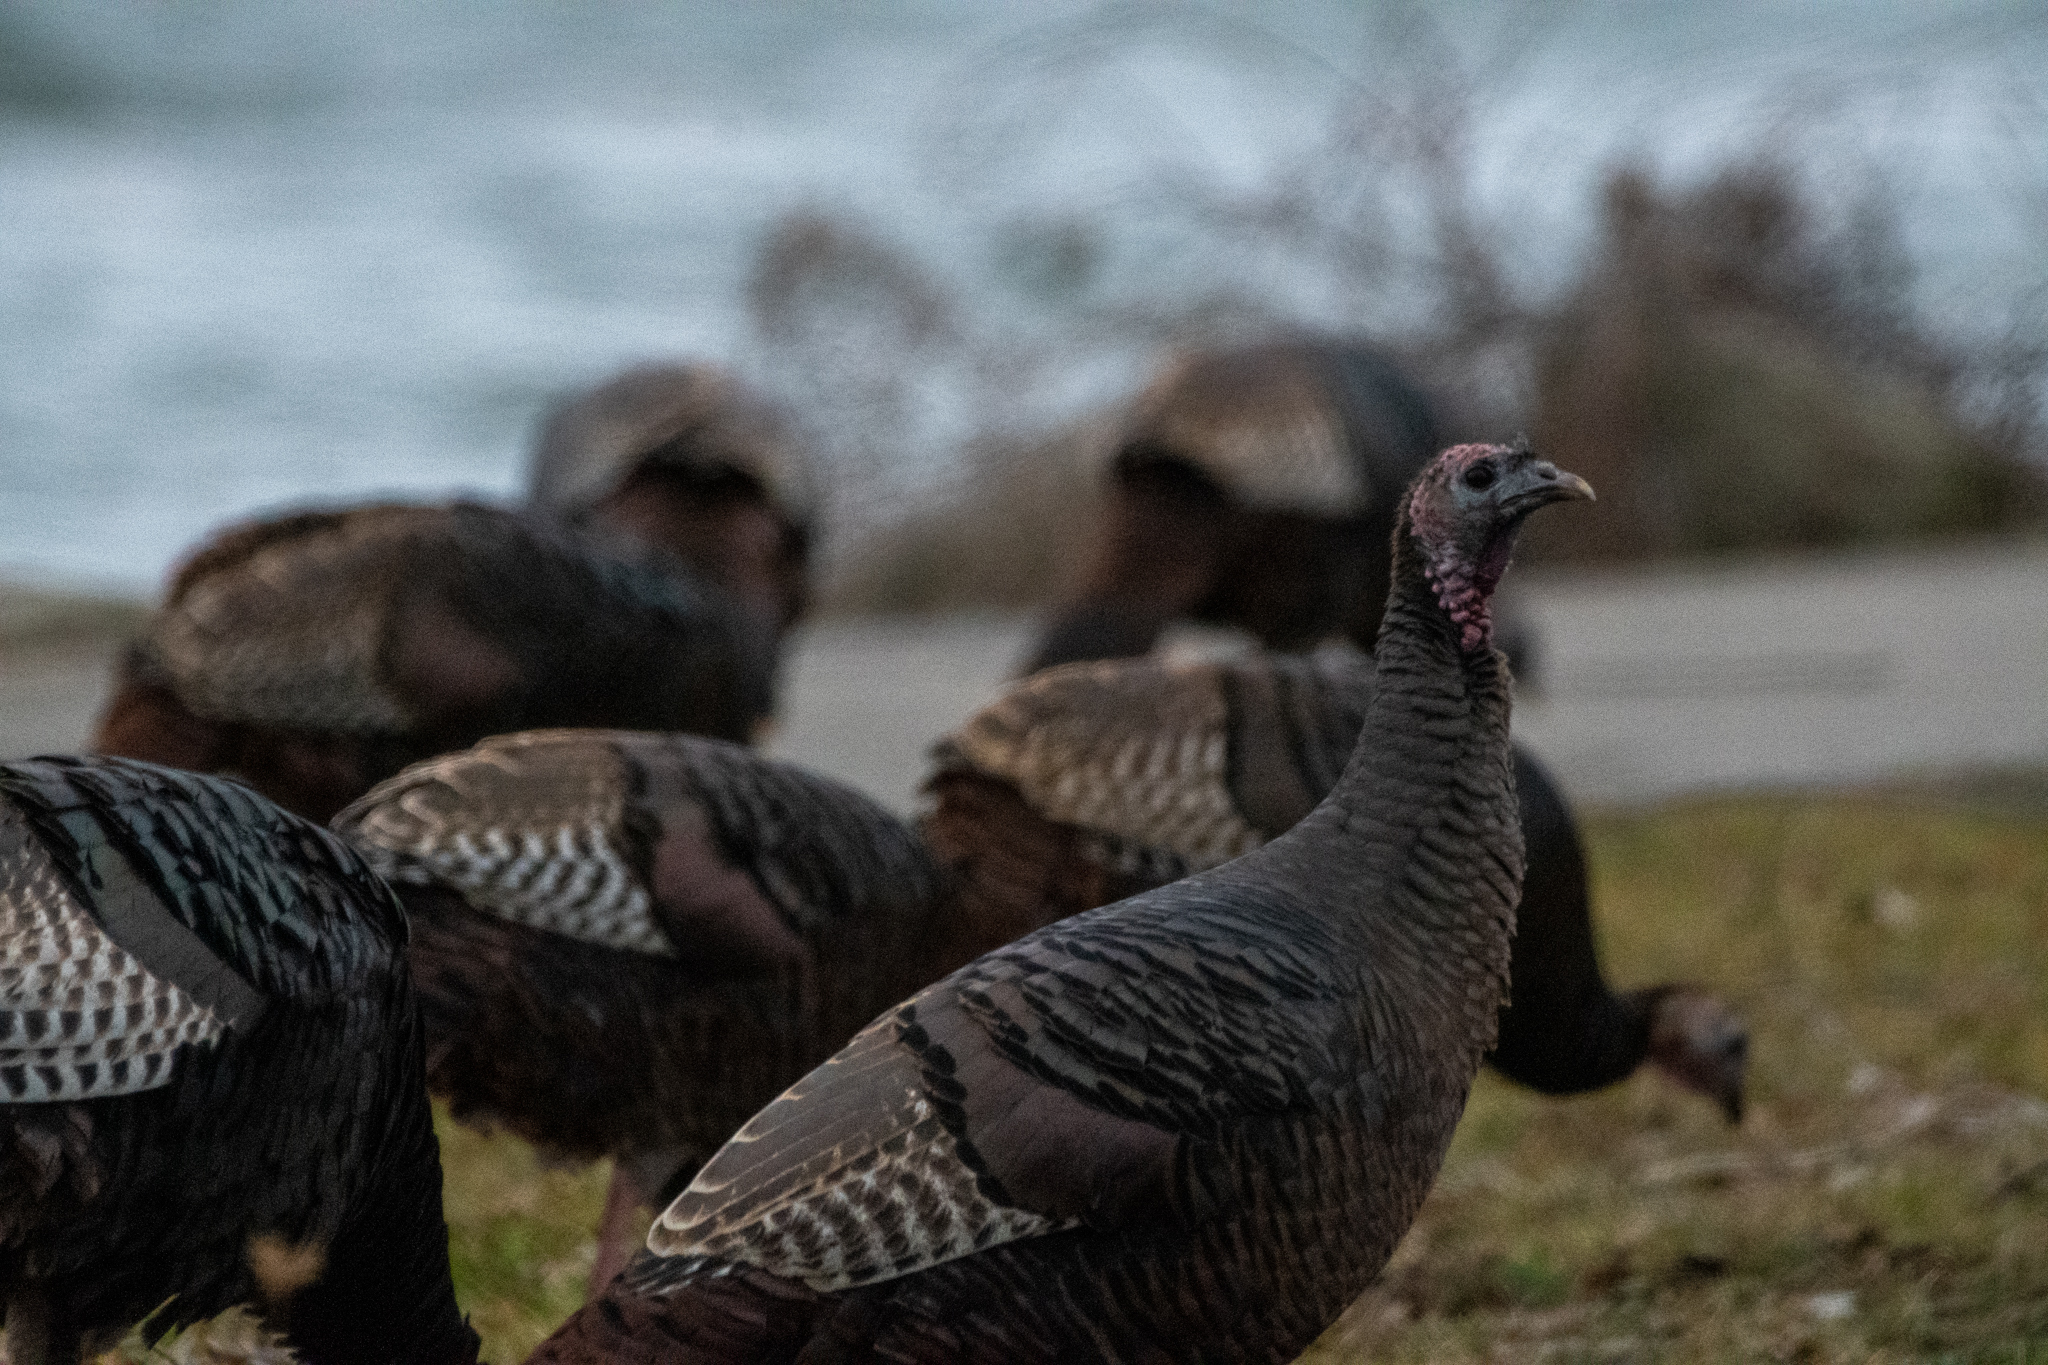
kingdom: Animalia
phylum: Chordata
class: Aves
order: Galliformes
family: Phasianidae
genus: Meleagris
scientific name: Meleagris gallopavo
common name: Wild turkey
